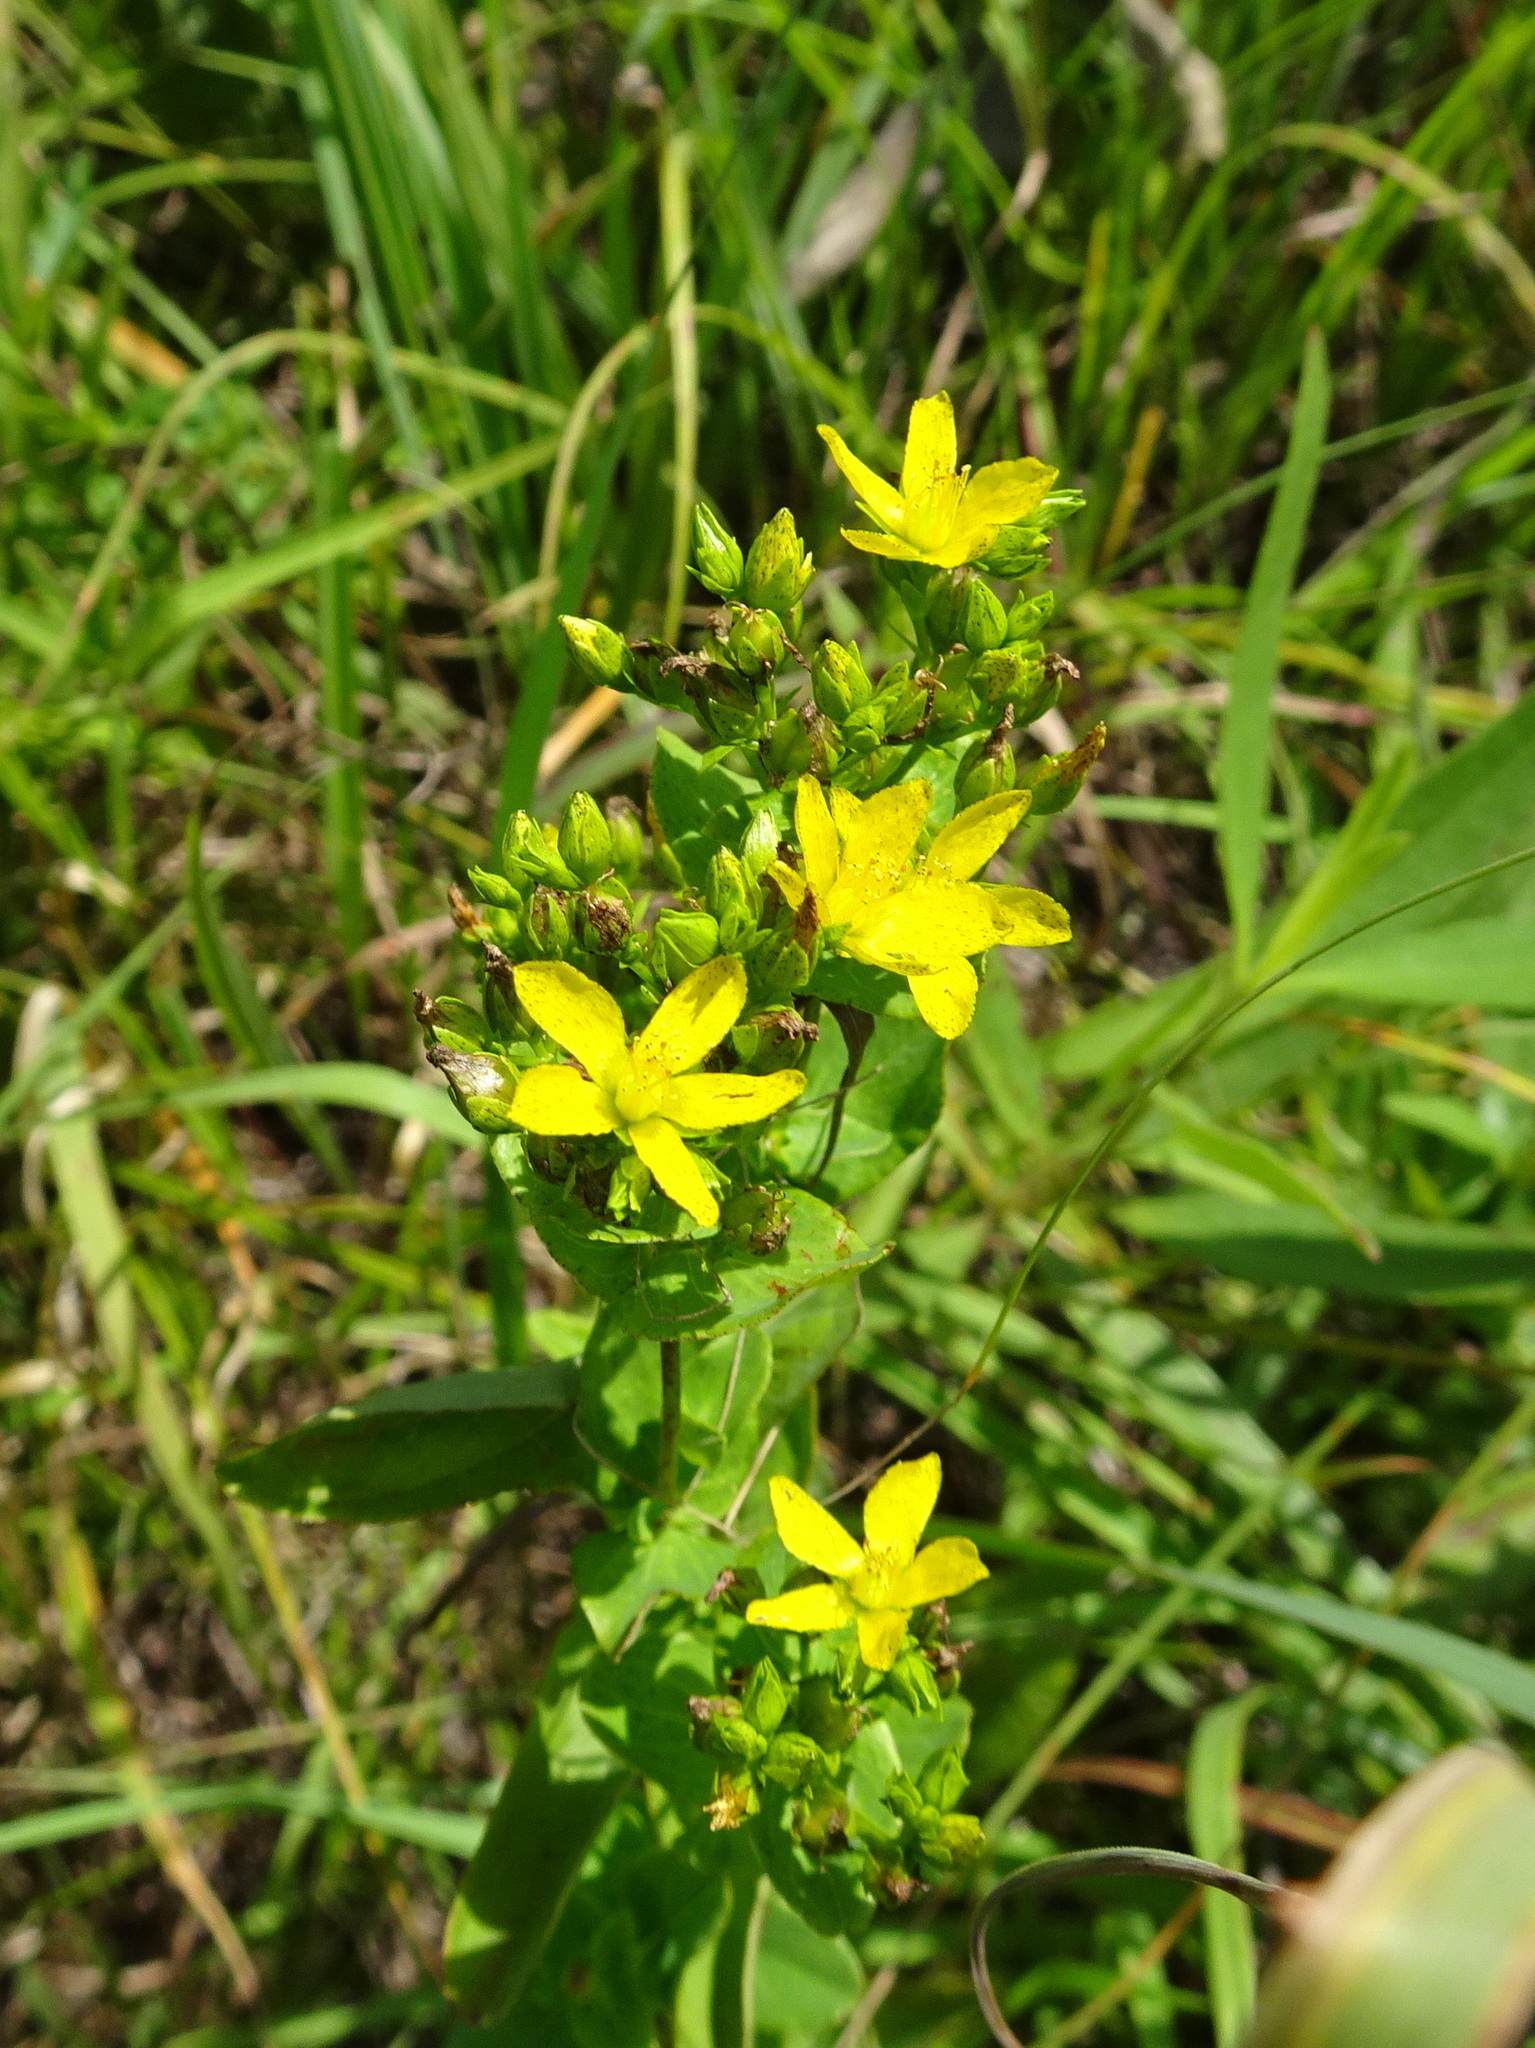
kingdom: Plantae
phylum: Tracheophyta
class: Magnoliopsida
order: Malpighiales
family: Hypericaceae
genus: Hypericum
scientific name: Hypericum punctatum
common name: Spotted st. john's-wort
